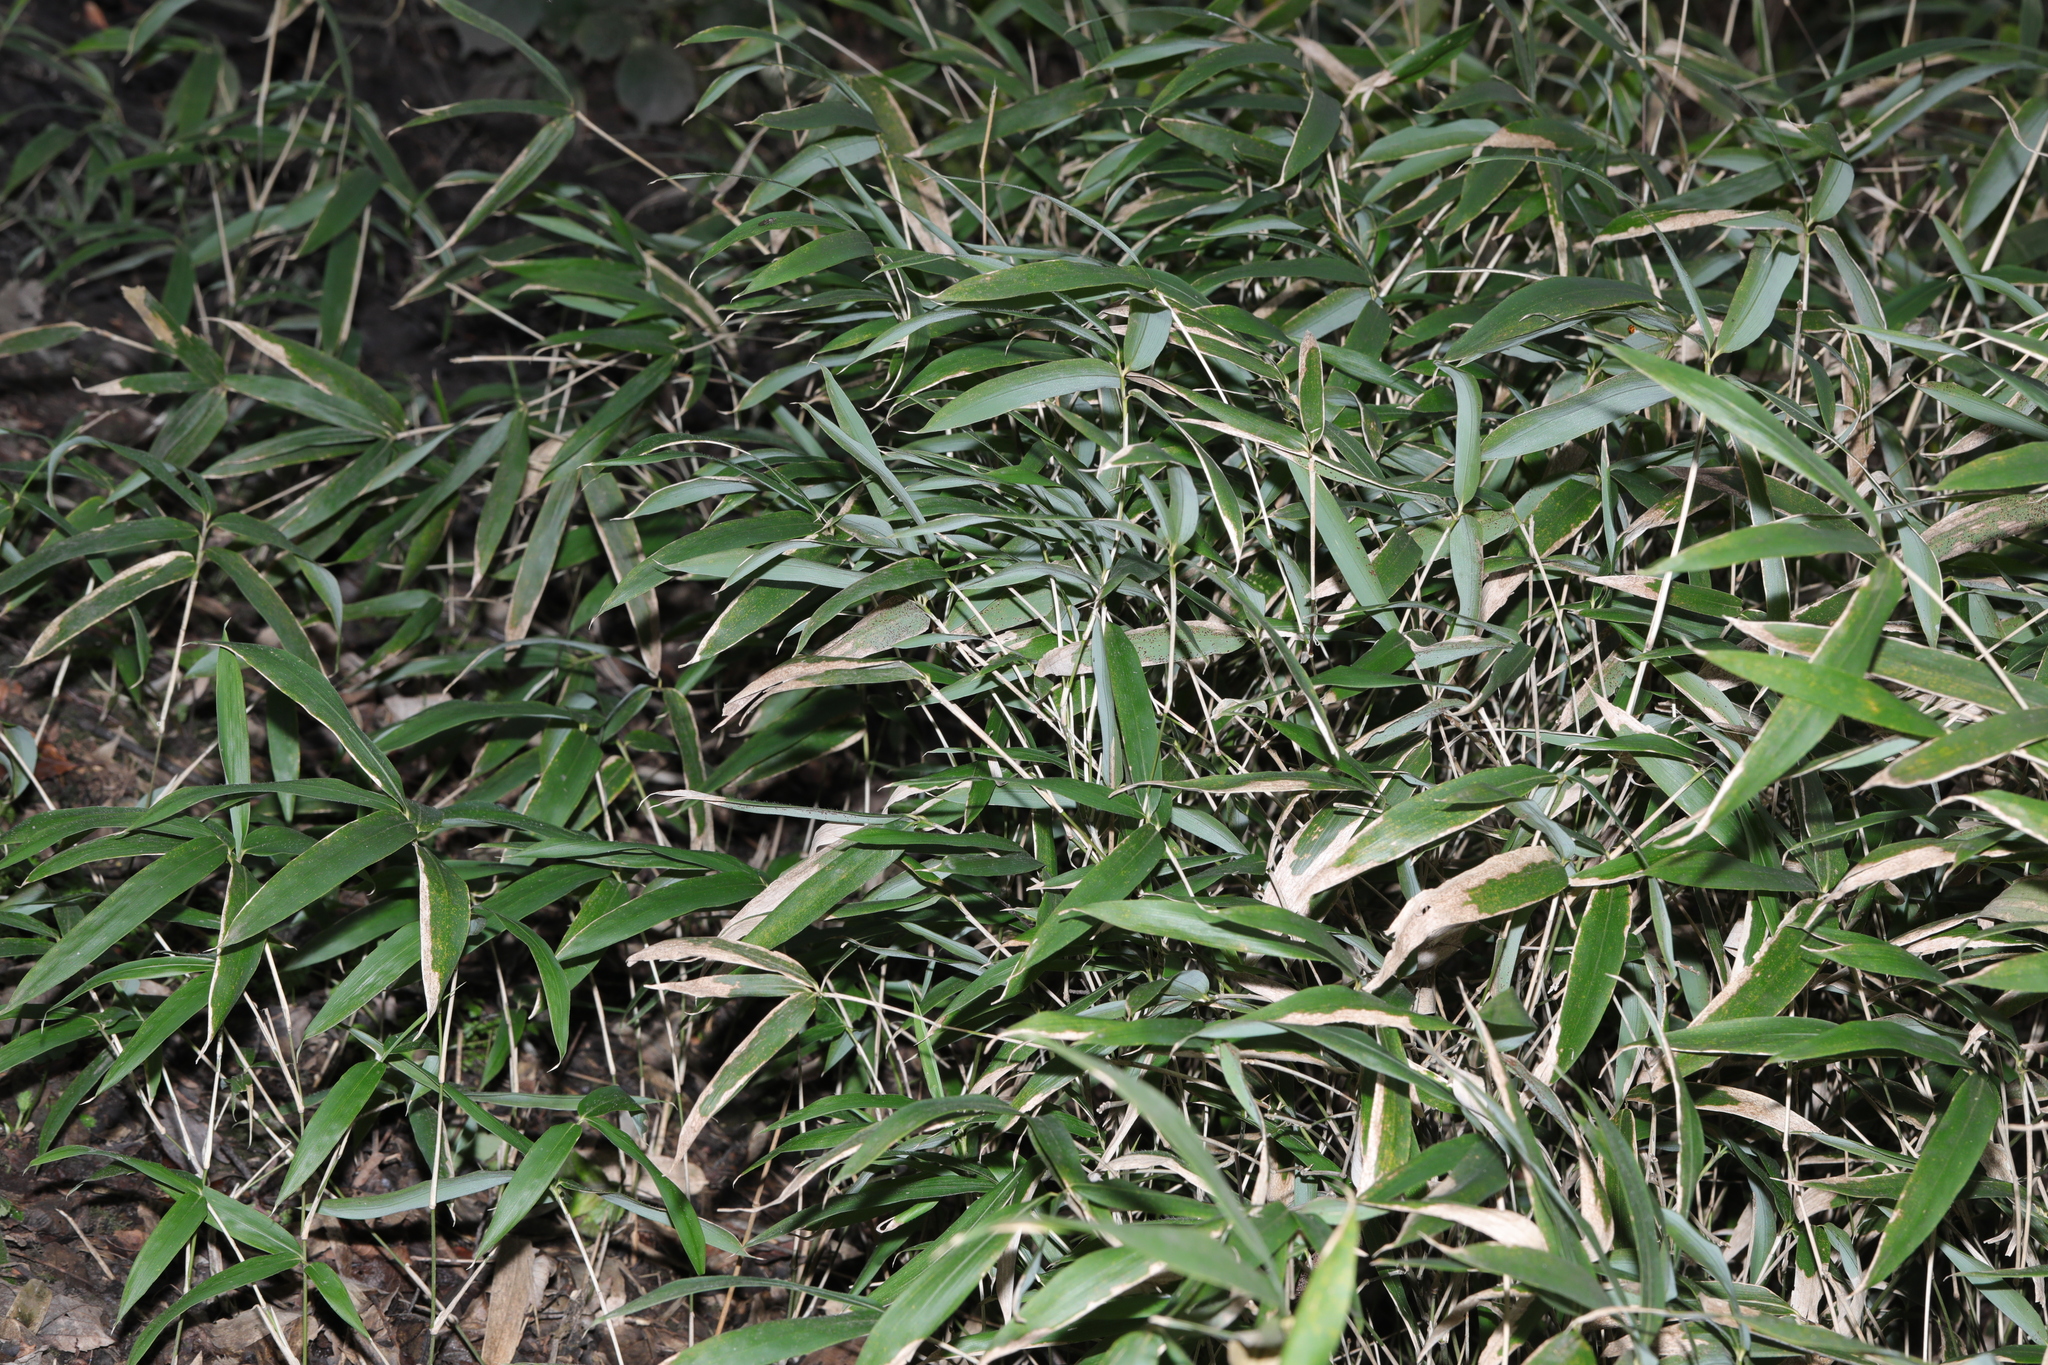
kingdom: Plantae
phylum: Tracheophyta
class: Liliopsida
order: Poales
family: Poaceae
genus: Pseudosasa
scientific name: Pseudosasa japonica
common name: Arrow bamboo
